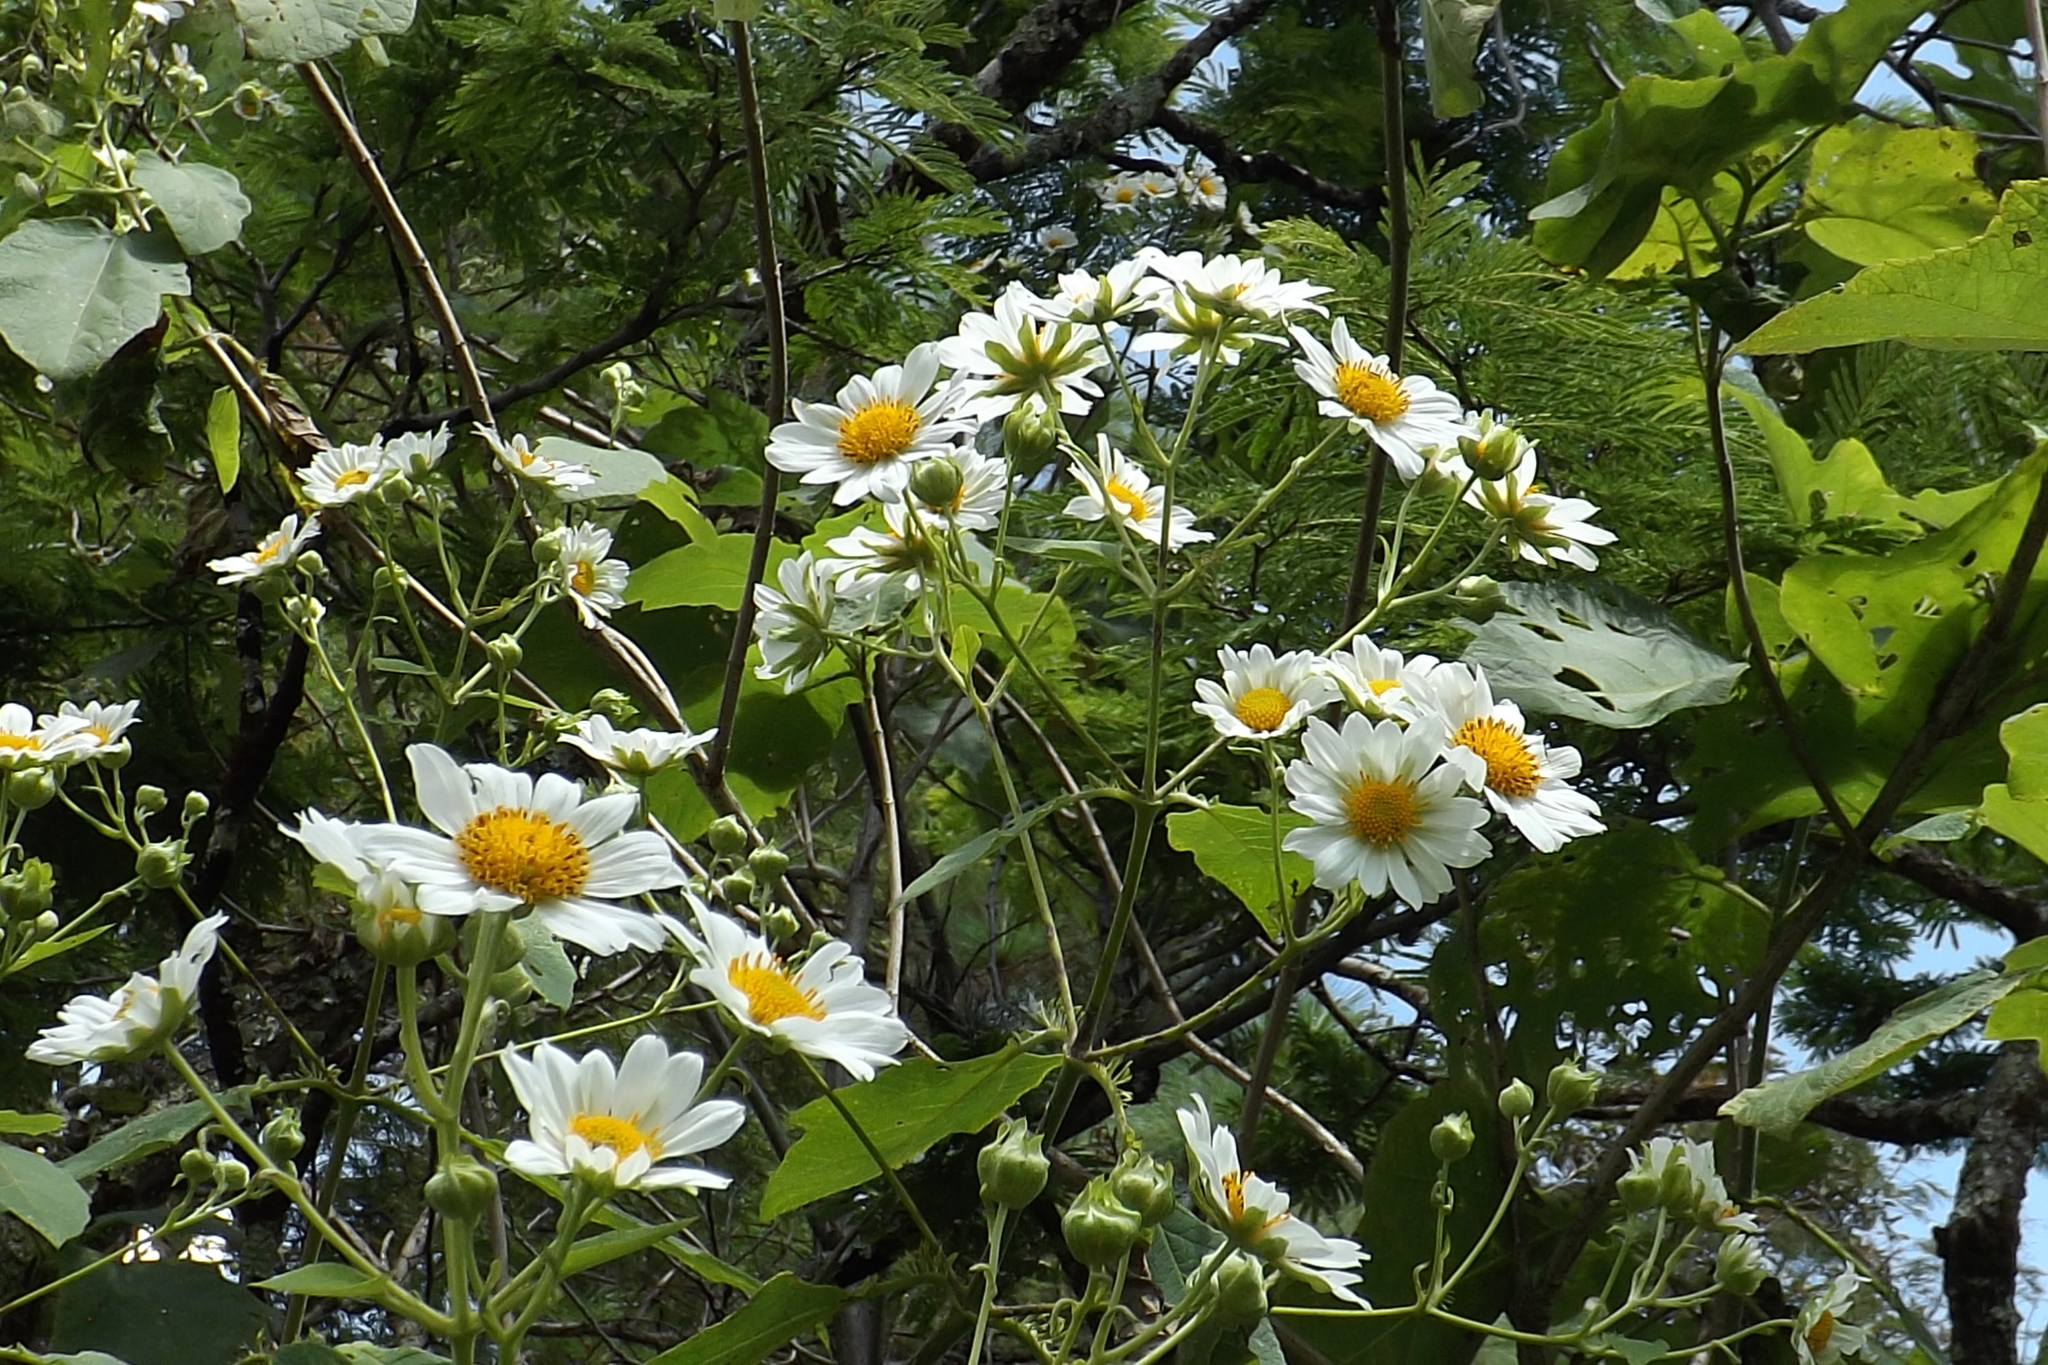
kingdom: Plantae
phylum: Tracheophyta
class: Magnoliopsida
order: Asterales
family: Asteraceae
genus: Montanoa
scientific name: Montanoa imbricata
